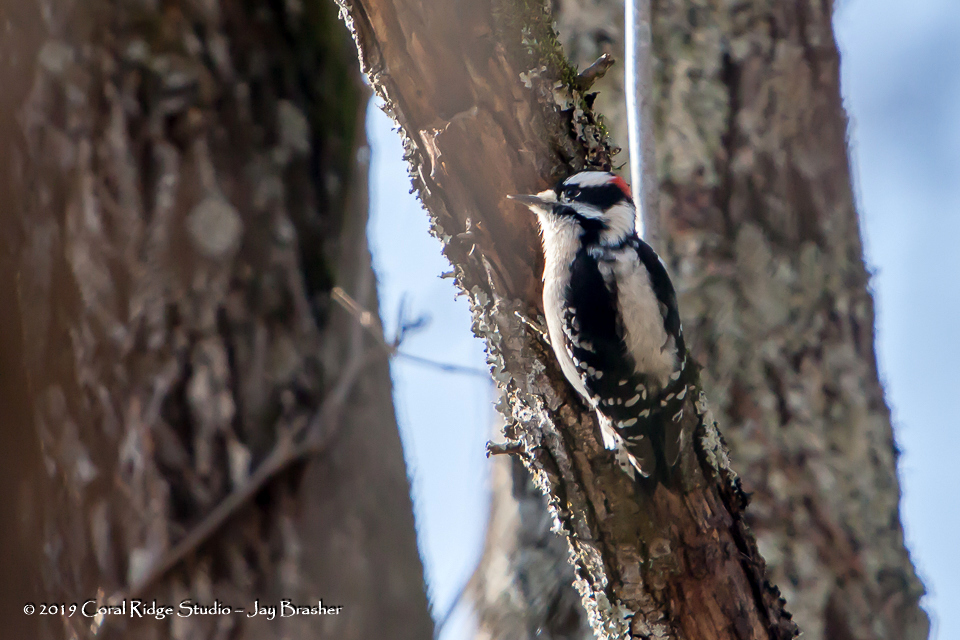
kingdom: Animalia
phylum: Chordata
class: Aves
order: Piciformes
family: Picidae
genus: Dryobates
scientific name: Dryobates pubescens
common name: Downy woodpecker
